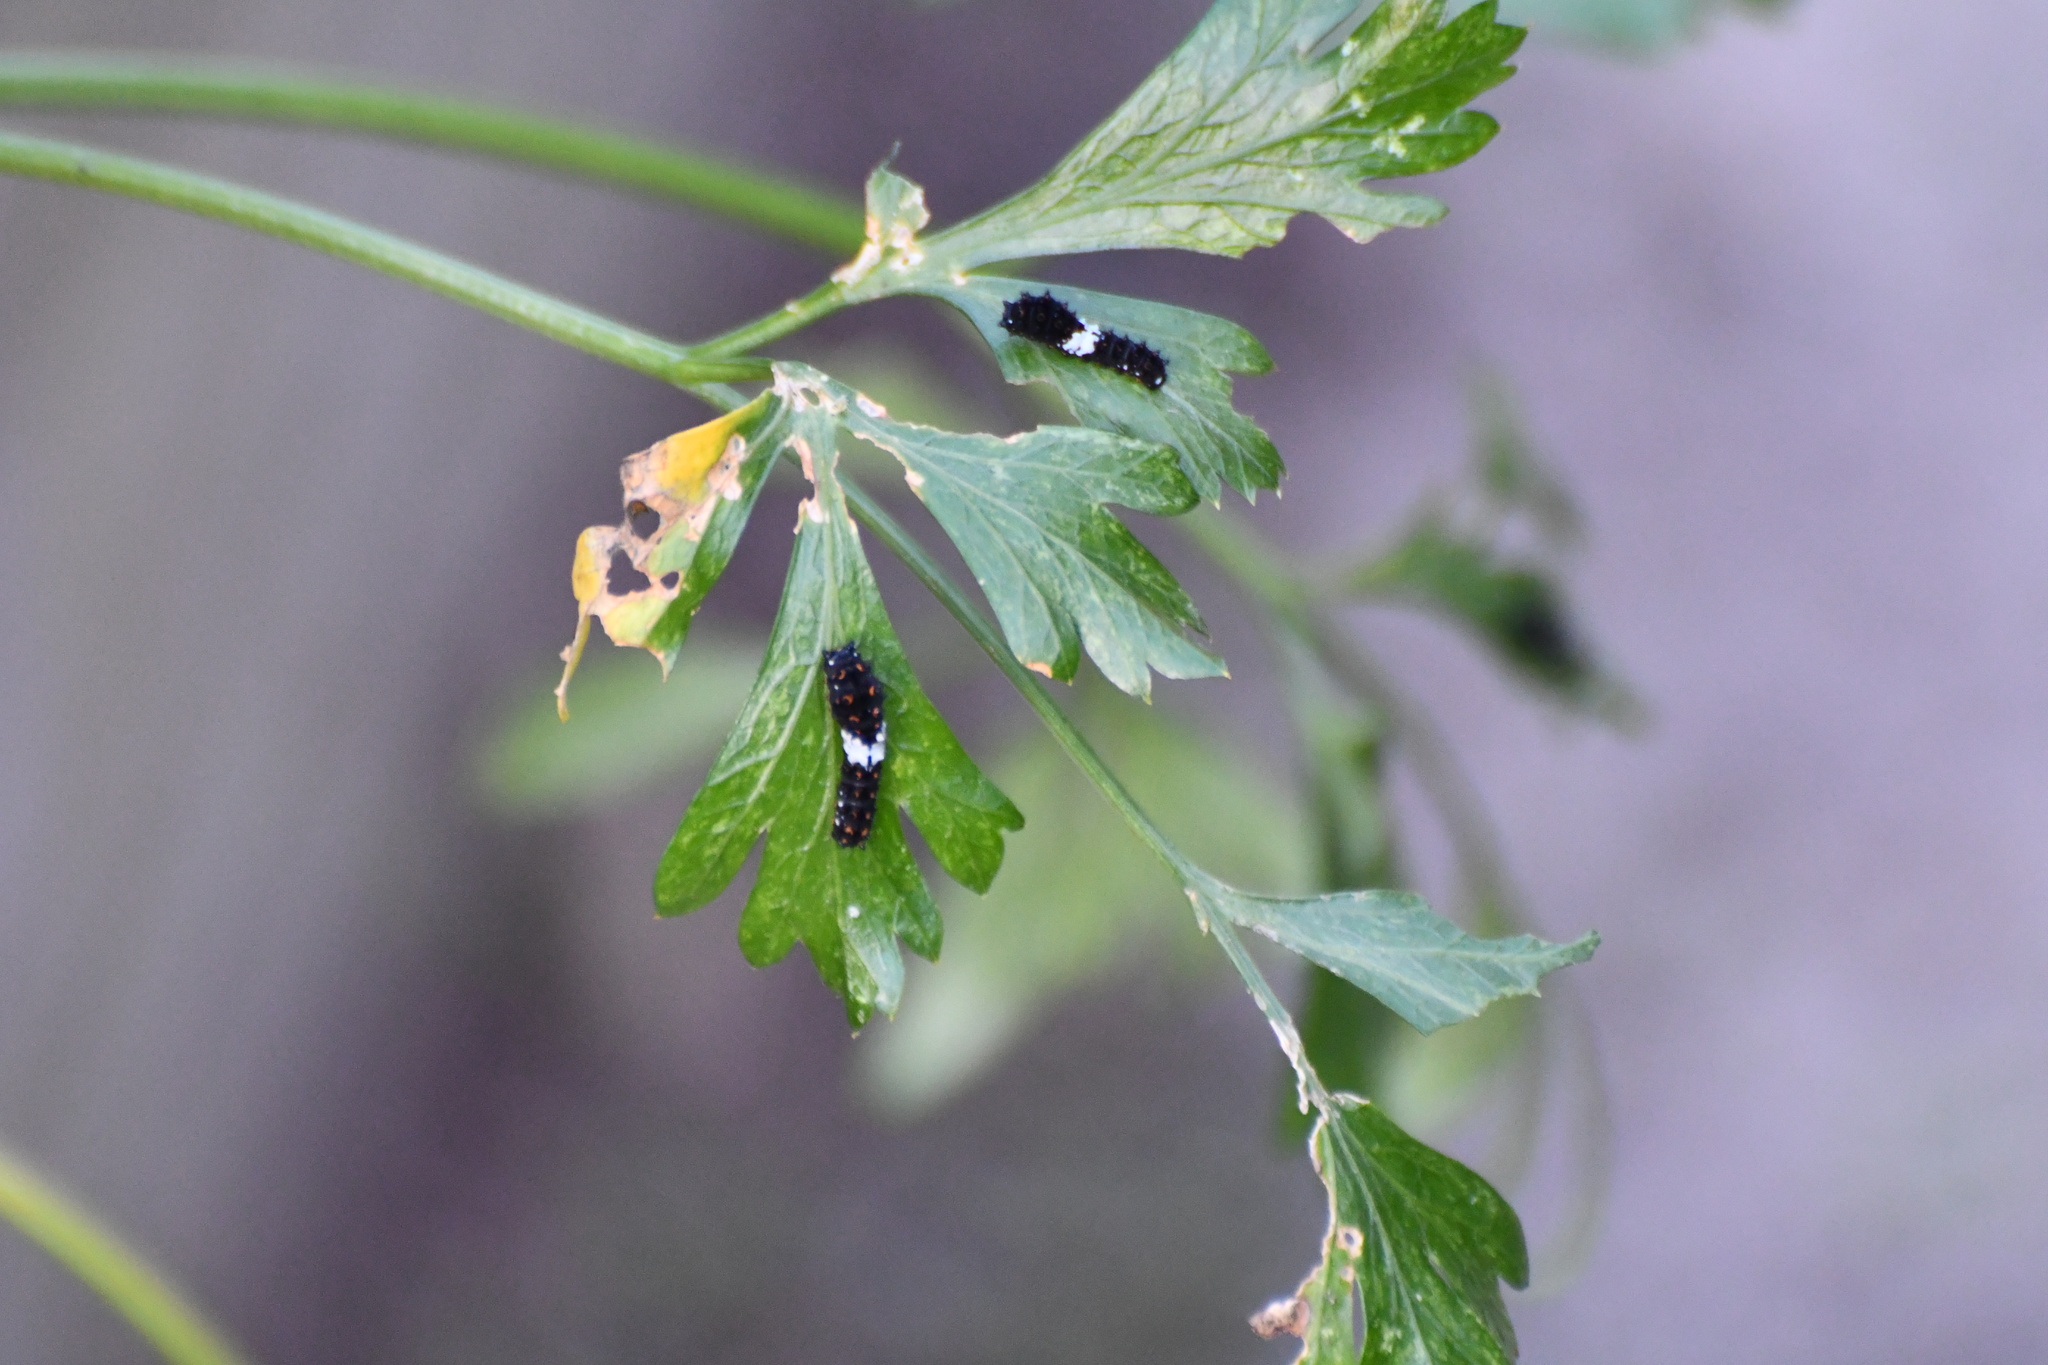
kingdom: Animalia
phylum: Arthropoda
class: Insecta
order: Lepidoptera
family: Papilionidae
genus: Papilio
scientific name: Papilio polyxenes
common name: Black swallowtail
